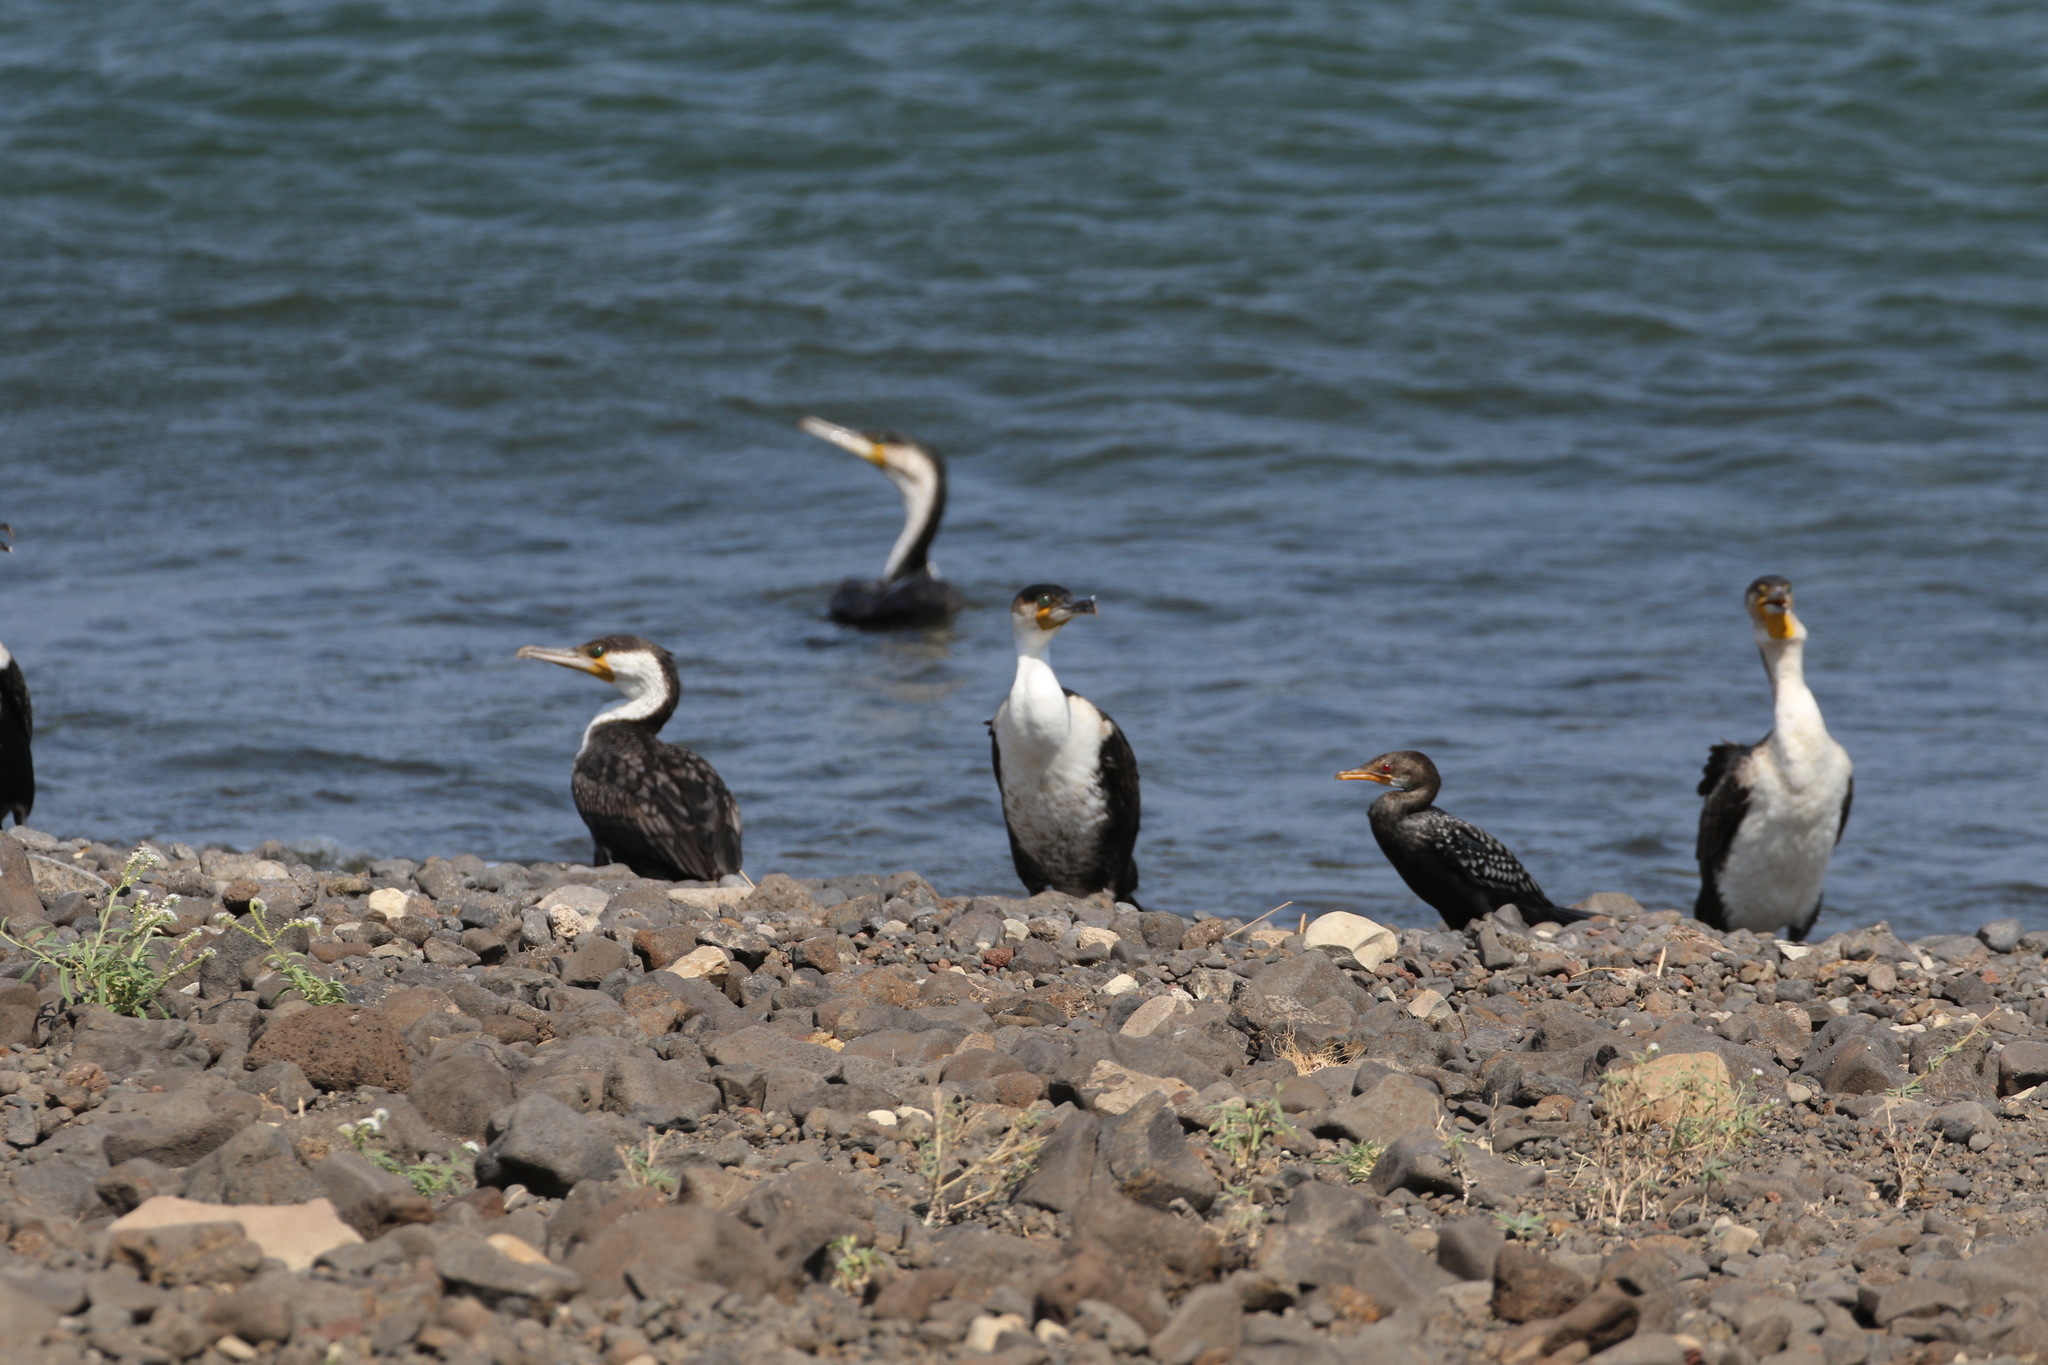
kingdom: Animalia
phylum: Chordata
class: Aves
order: Suliformes
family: Phalacrocoracidae
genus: Microcarbo
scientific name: Microcarbo africanus
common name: Long-tailed cormorant
